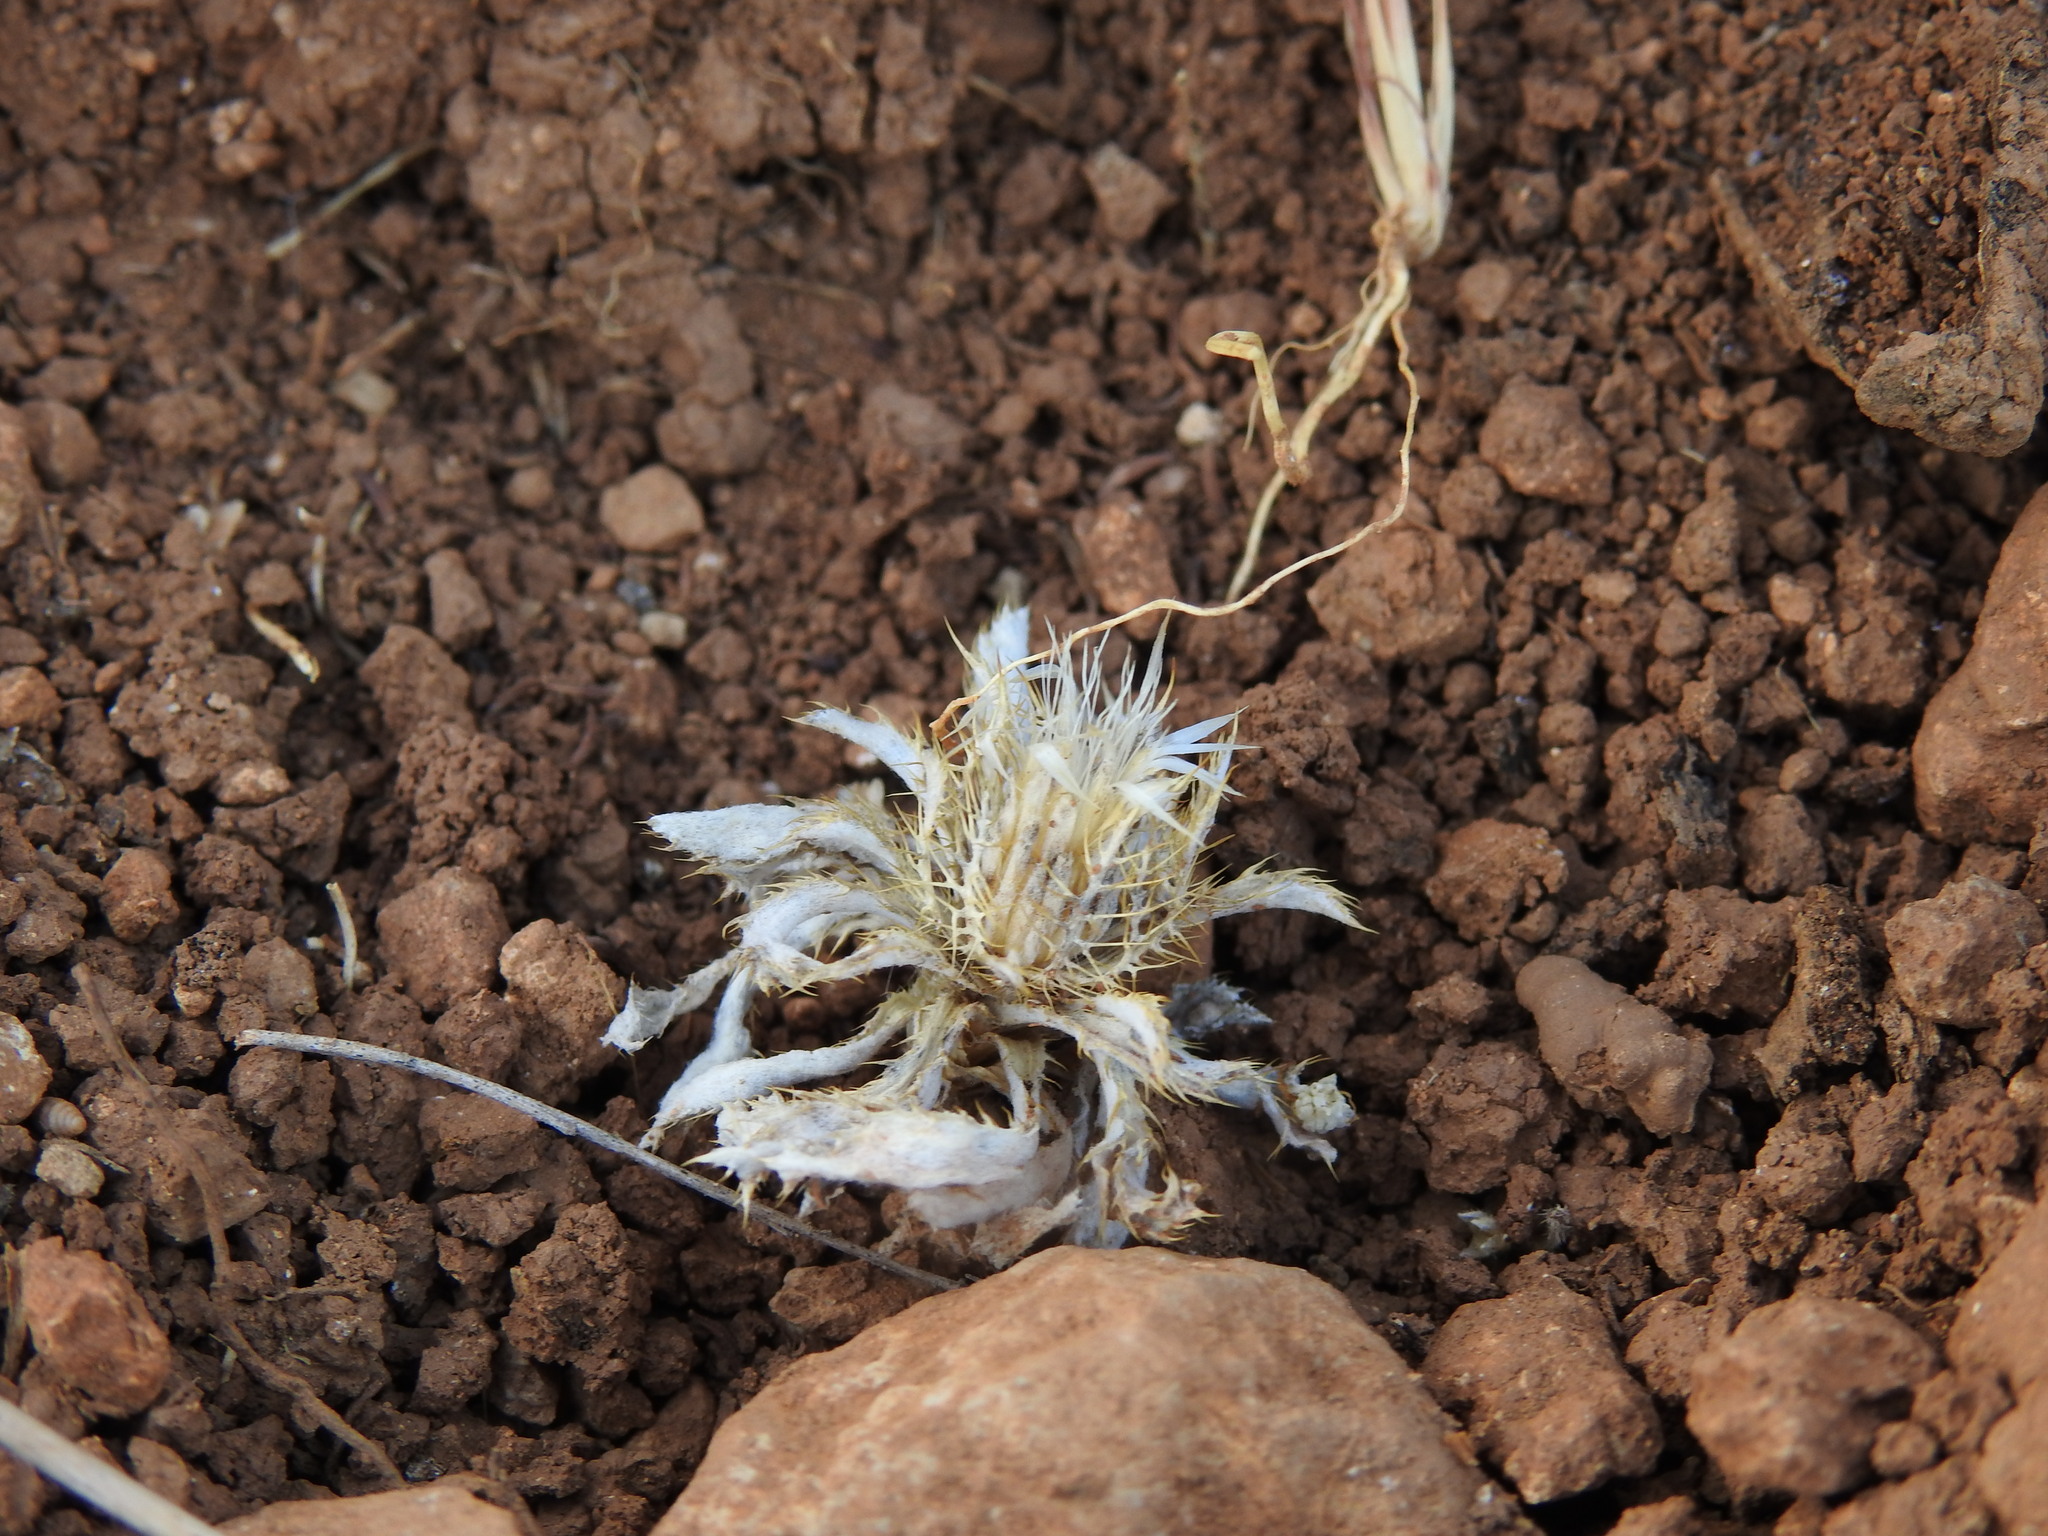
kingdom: Plantae
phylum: Tracheophyta
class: Magnoliopsida
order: Asterales
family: Asteraceae
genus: Atractylis
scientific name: Atractylis cancellata
